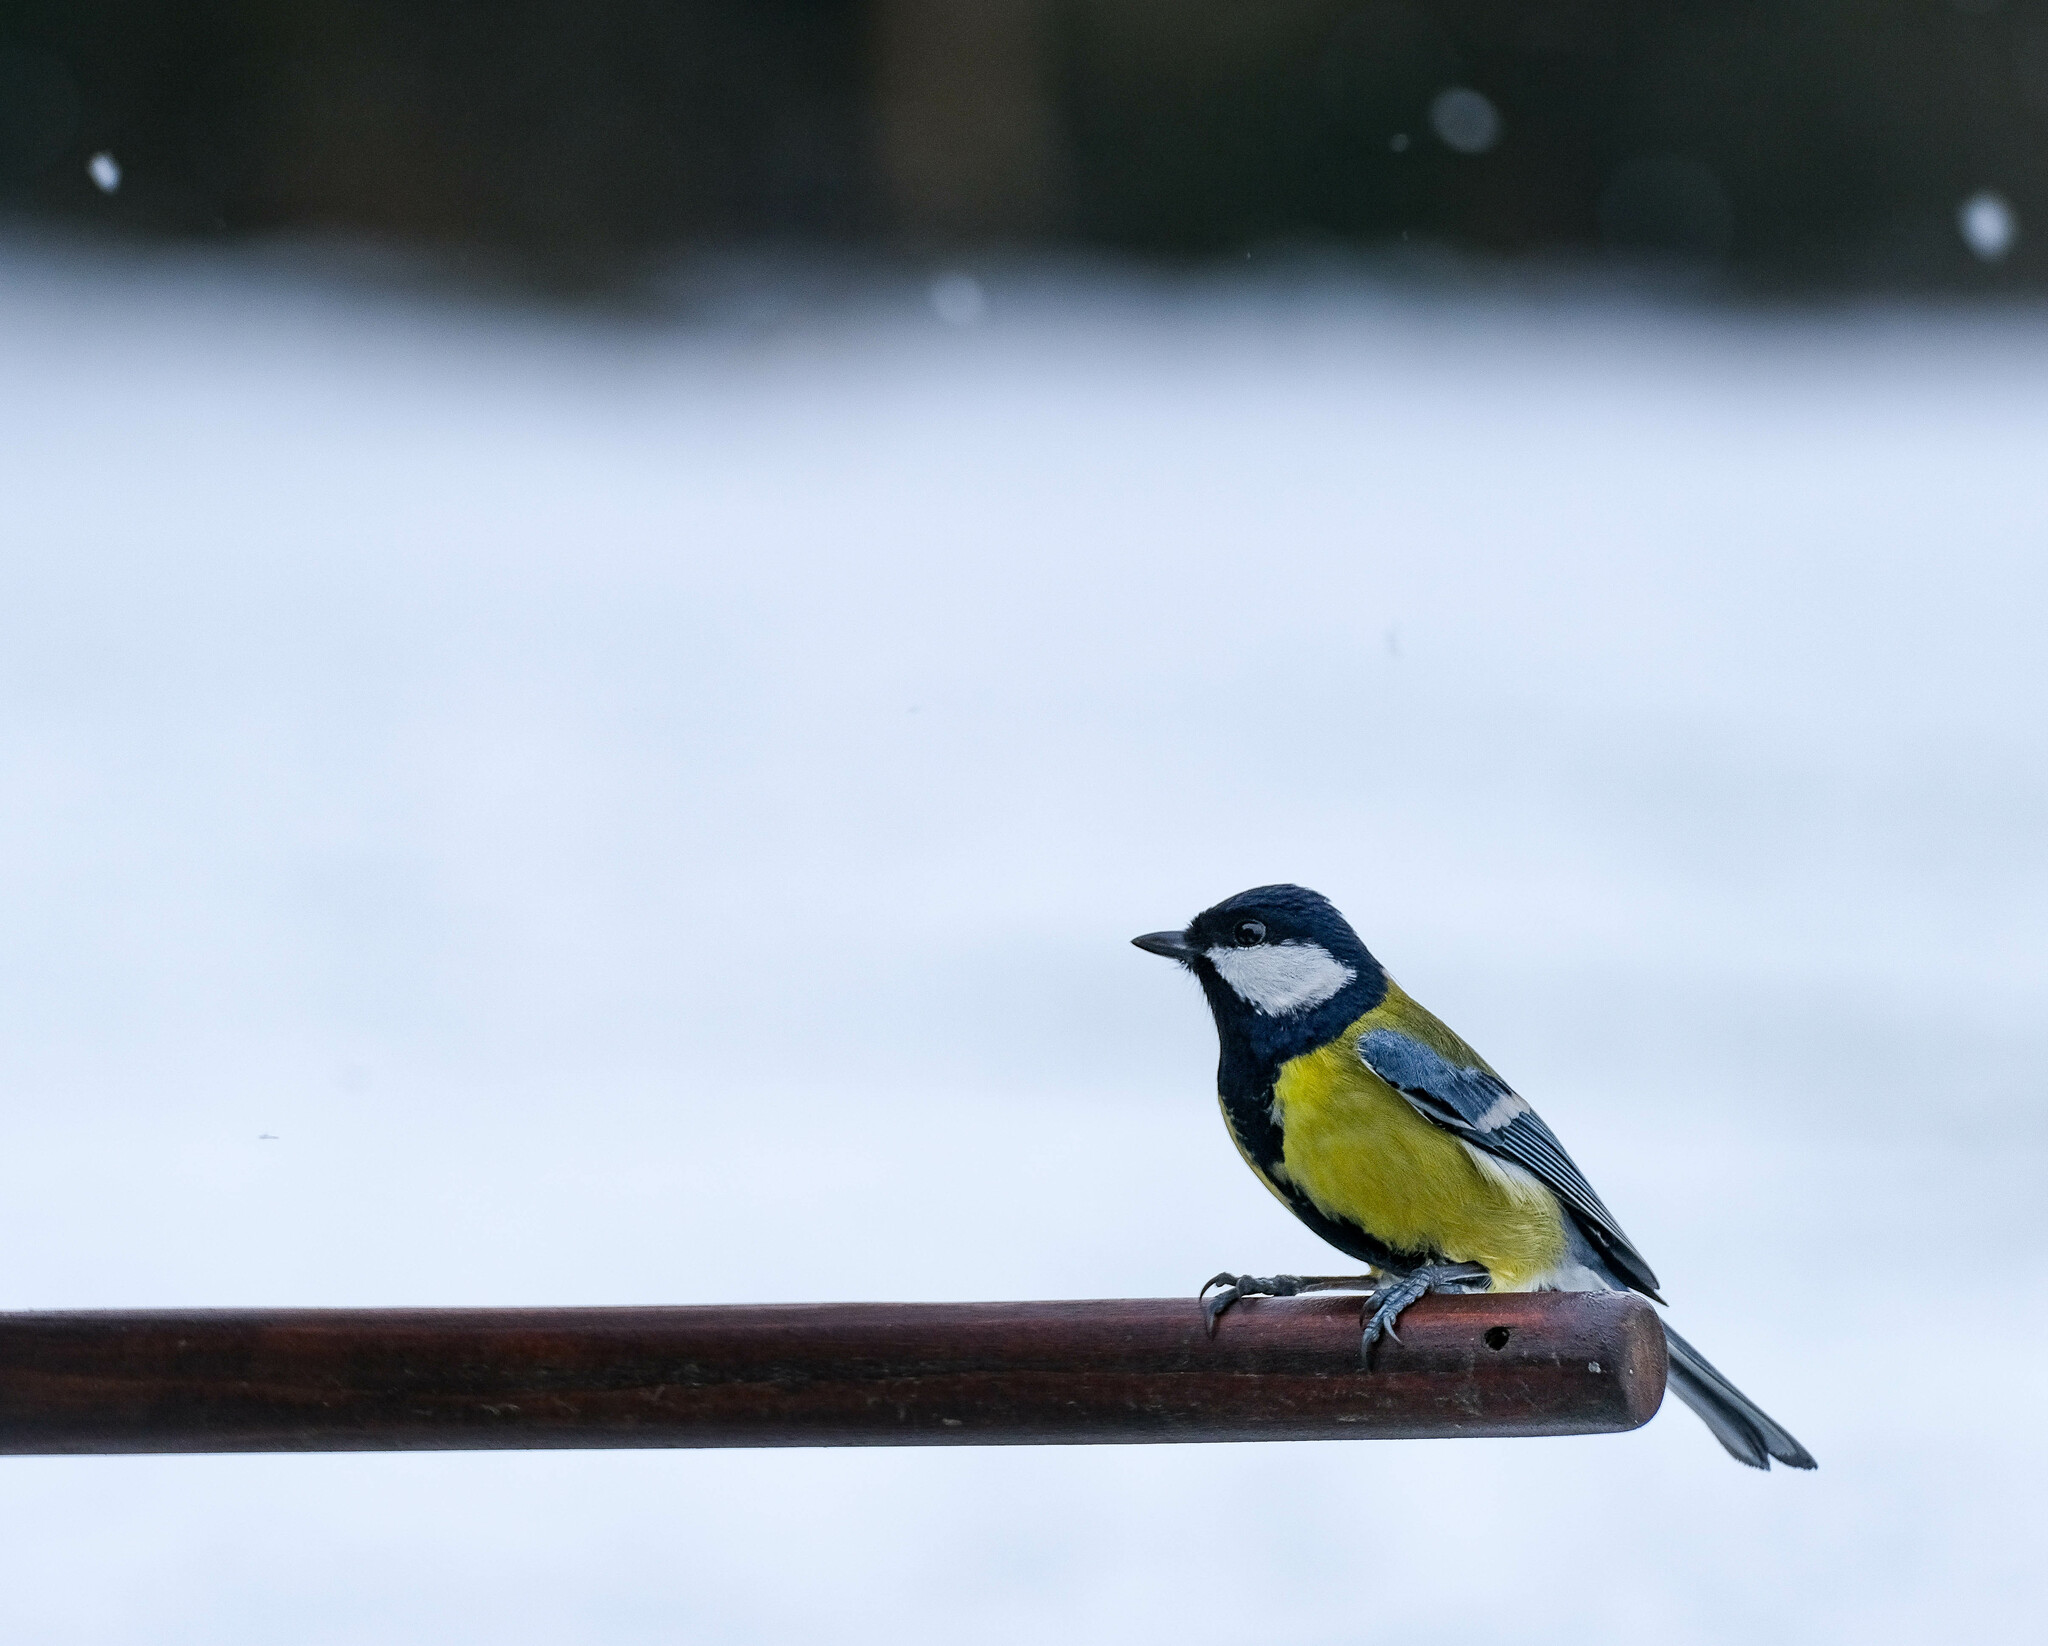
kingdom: Animalia
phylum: Chordata
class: Aves
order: Passeriformes
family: Paridae
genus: Parus
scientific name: Parus major
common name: Great tit
